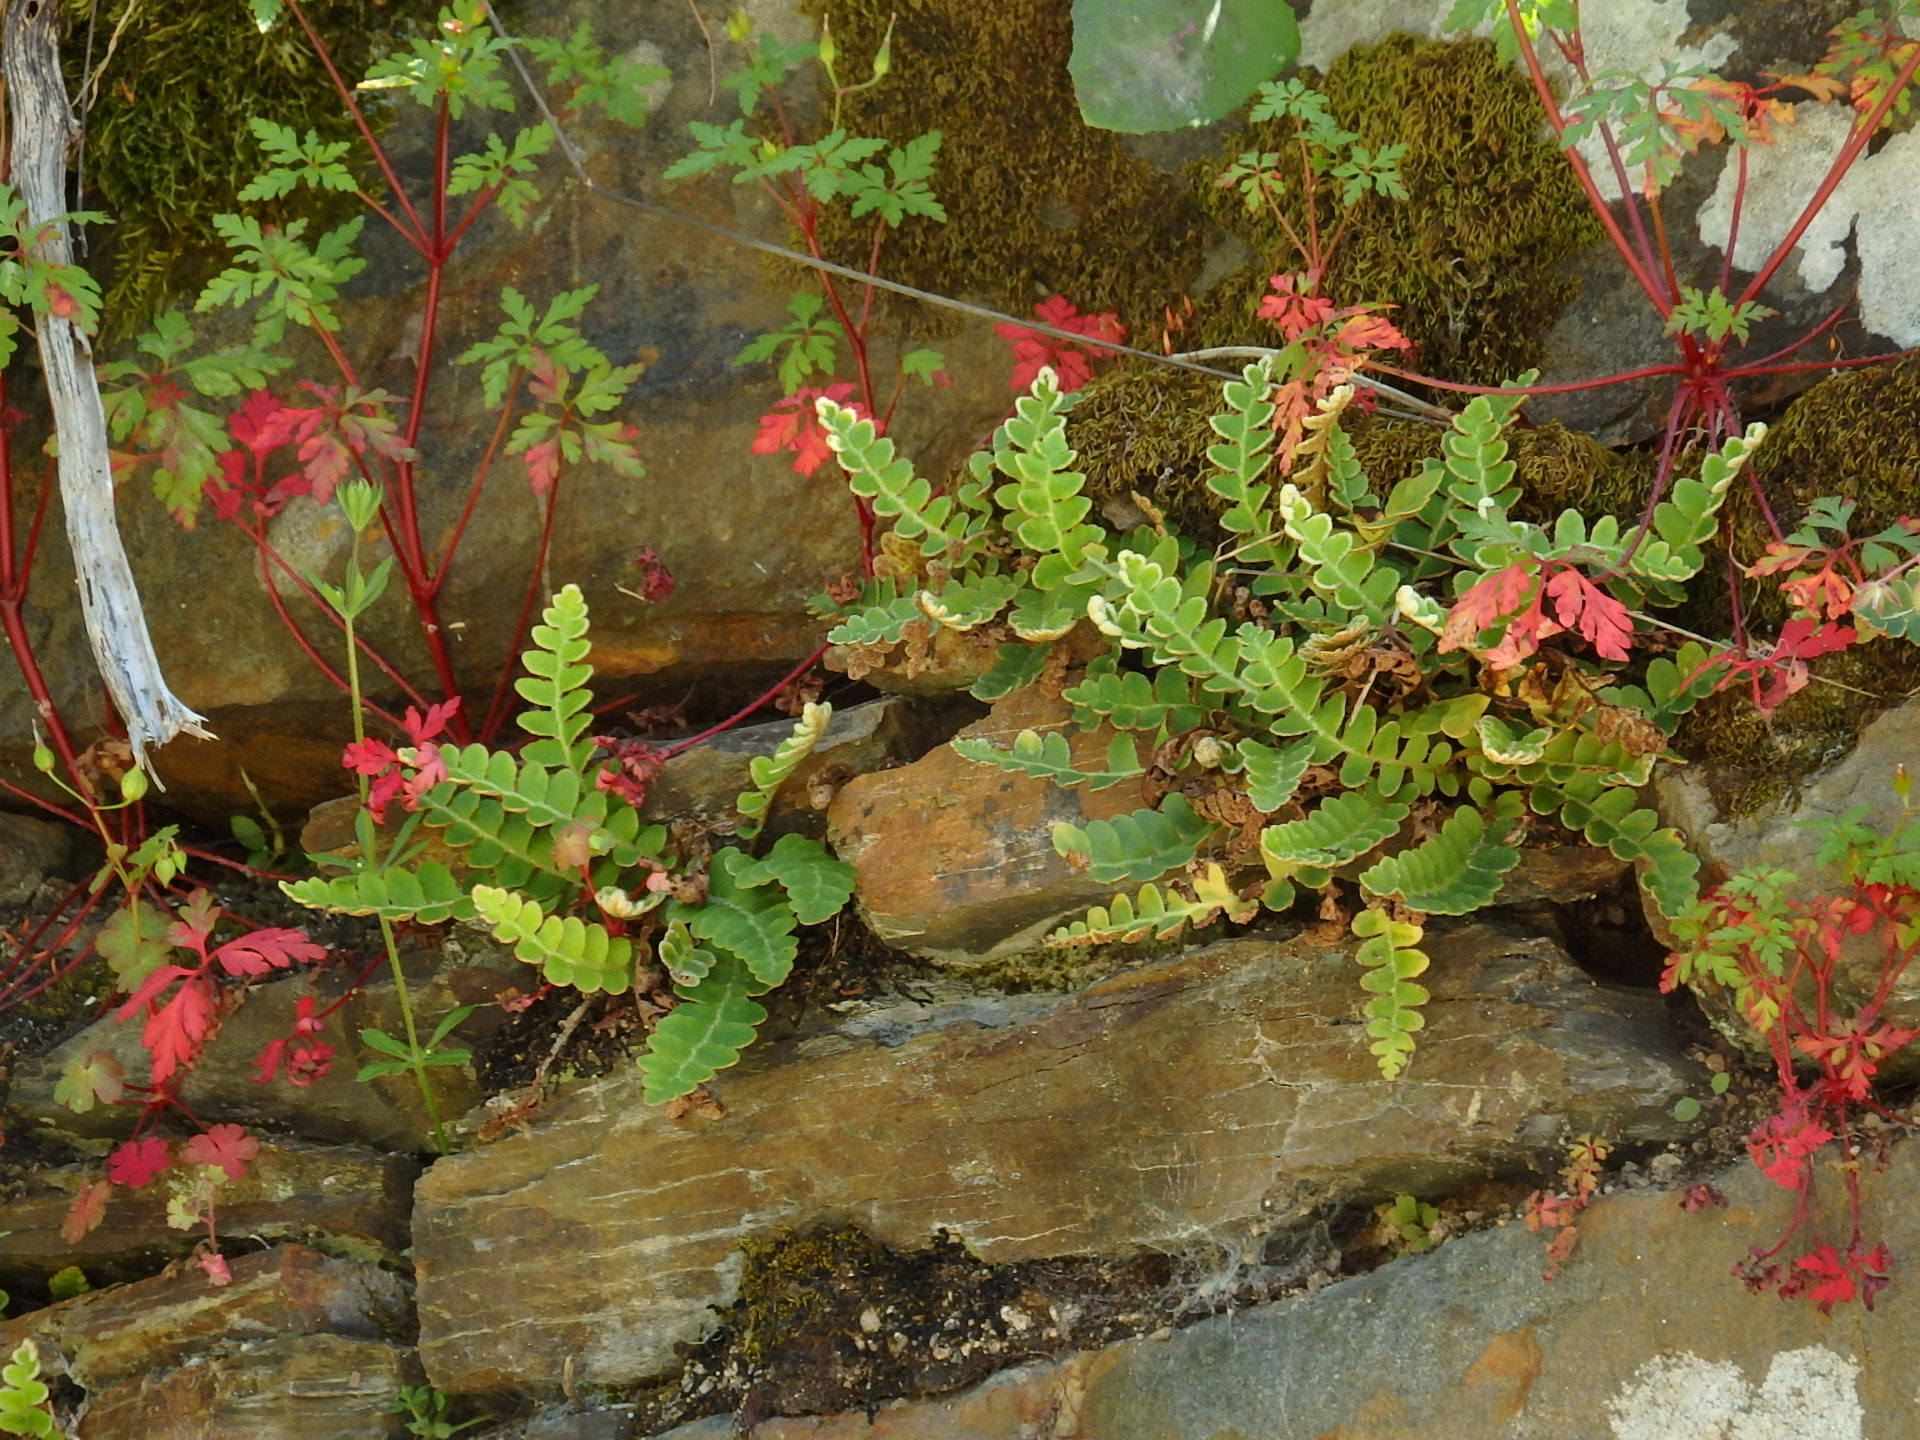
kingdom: Plantae
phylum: Tracheophyta
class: Polypodiopsida
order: Polypodiales
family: Aspleniaceae
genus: Asplenium
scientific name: Asplenium ceterach
